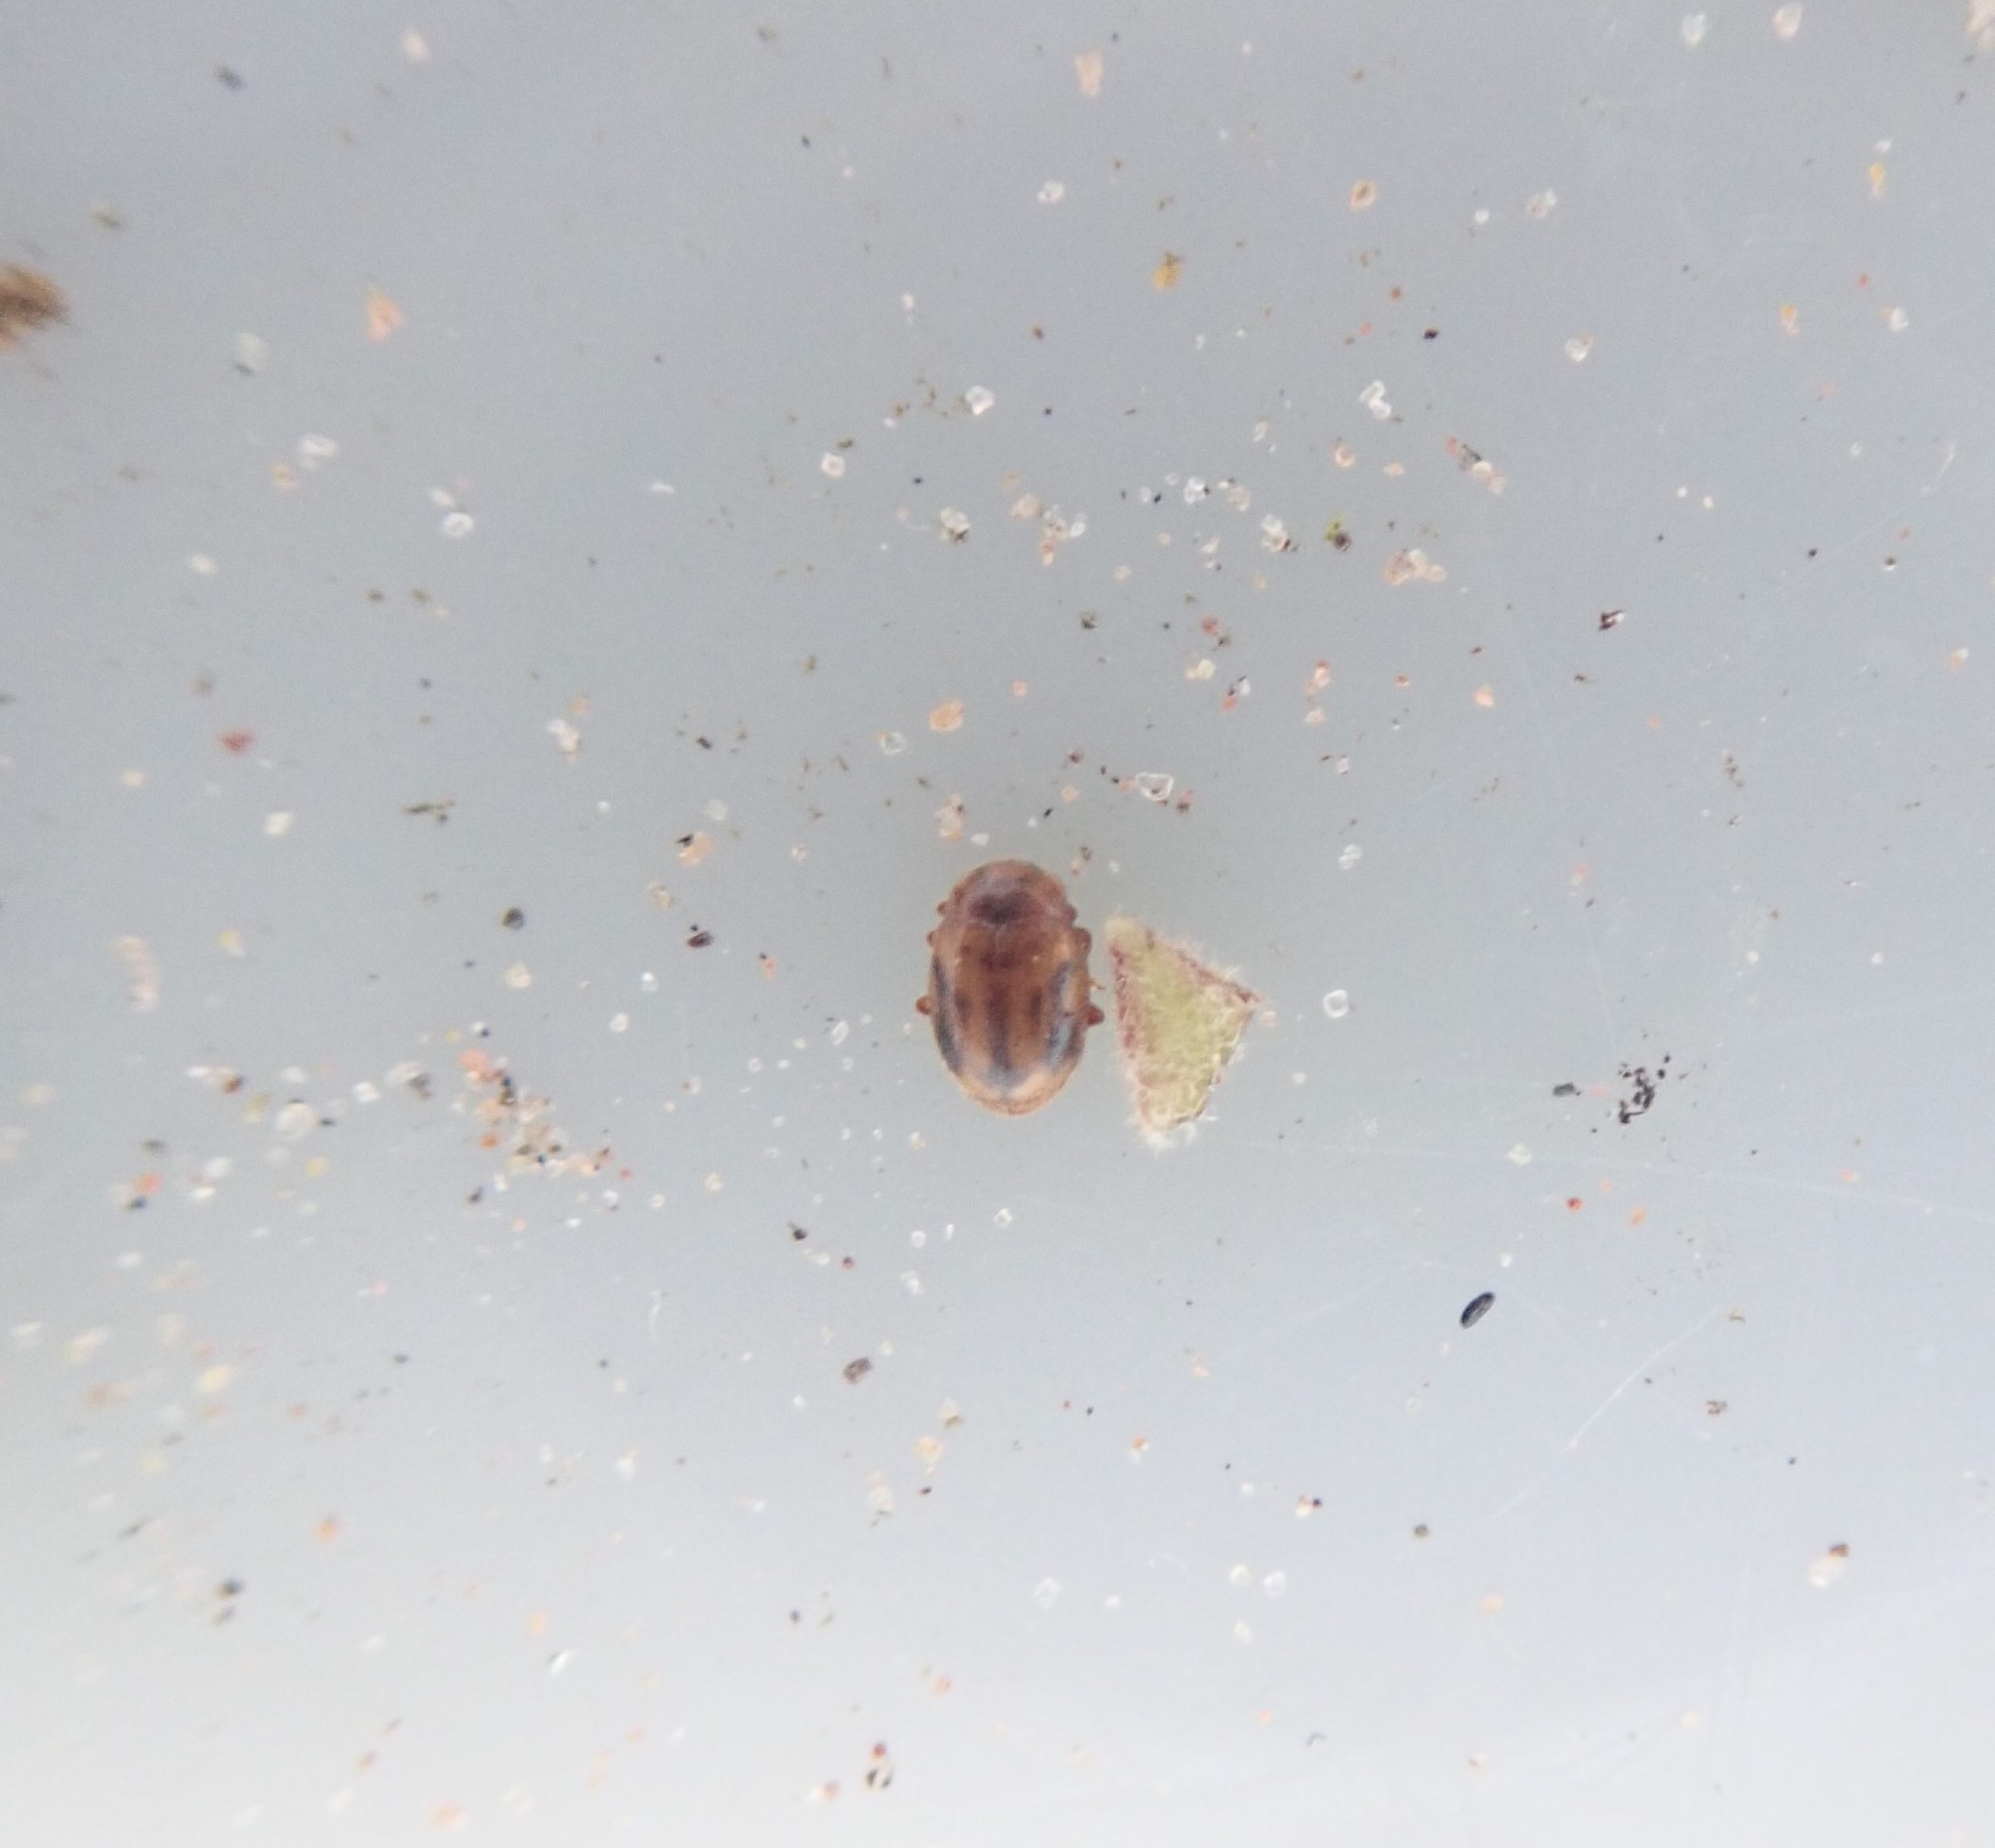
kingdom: Animalia
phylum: Arthropoda
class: Insecta
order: Coleoptera
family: Coccinellidae
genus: Rhyzobius
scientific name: Rhyzobius chrysomeloides
